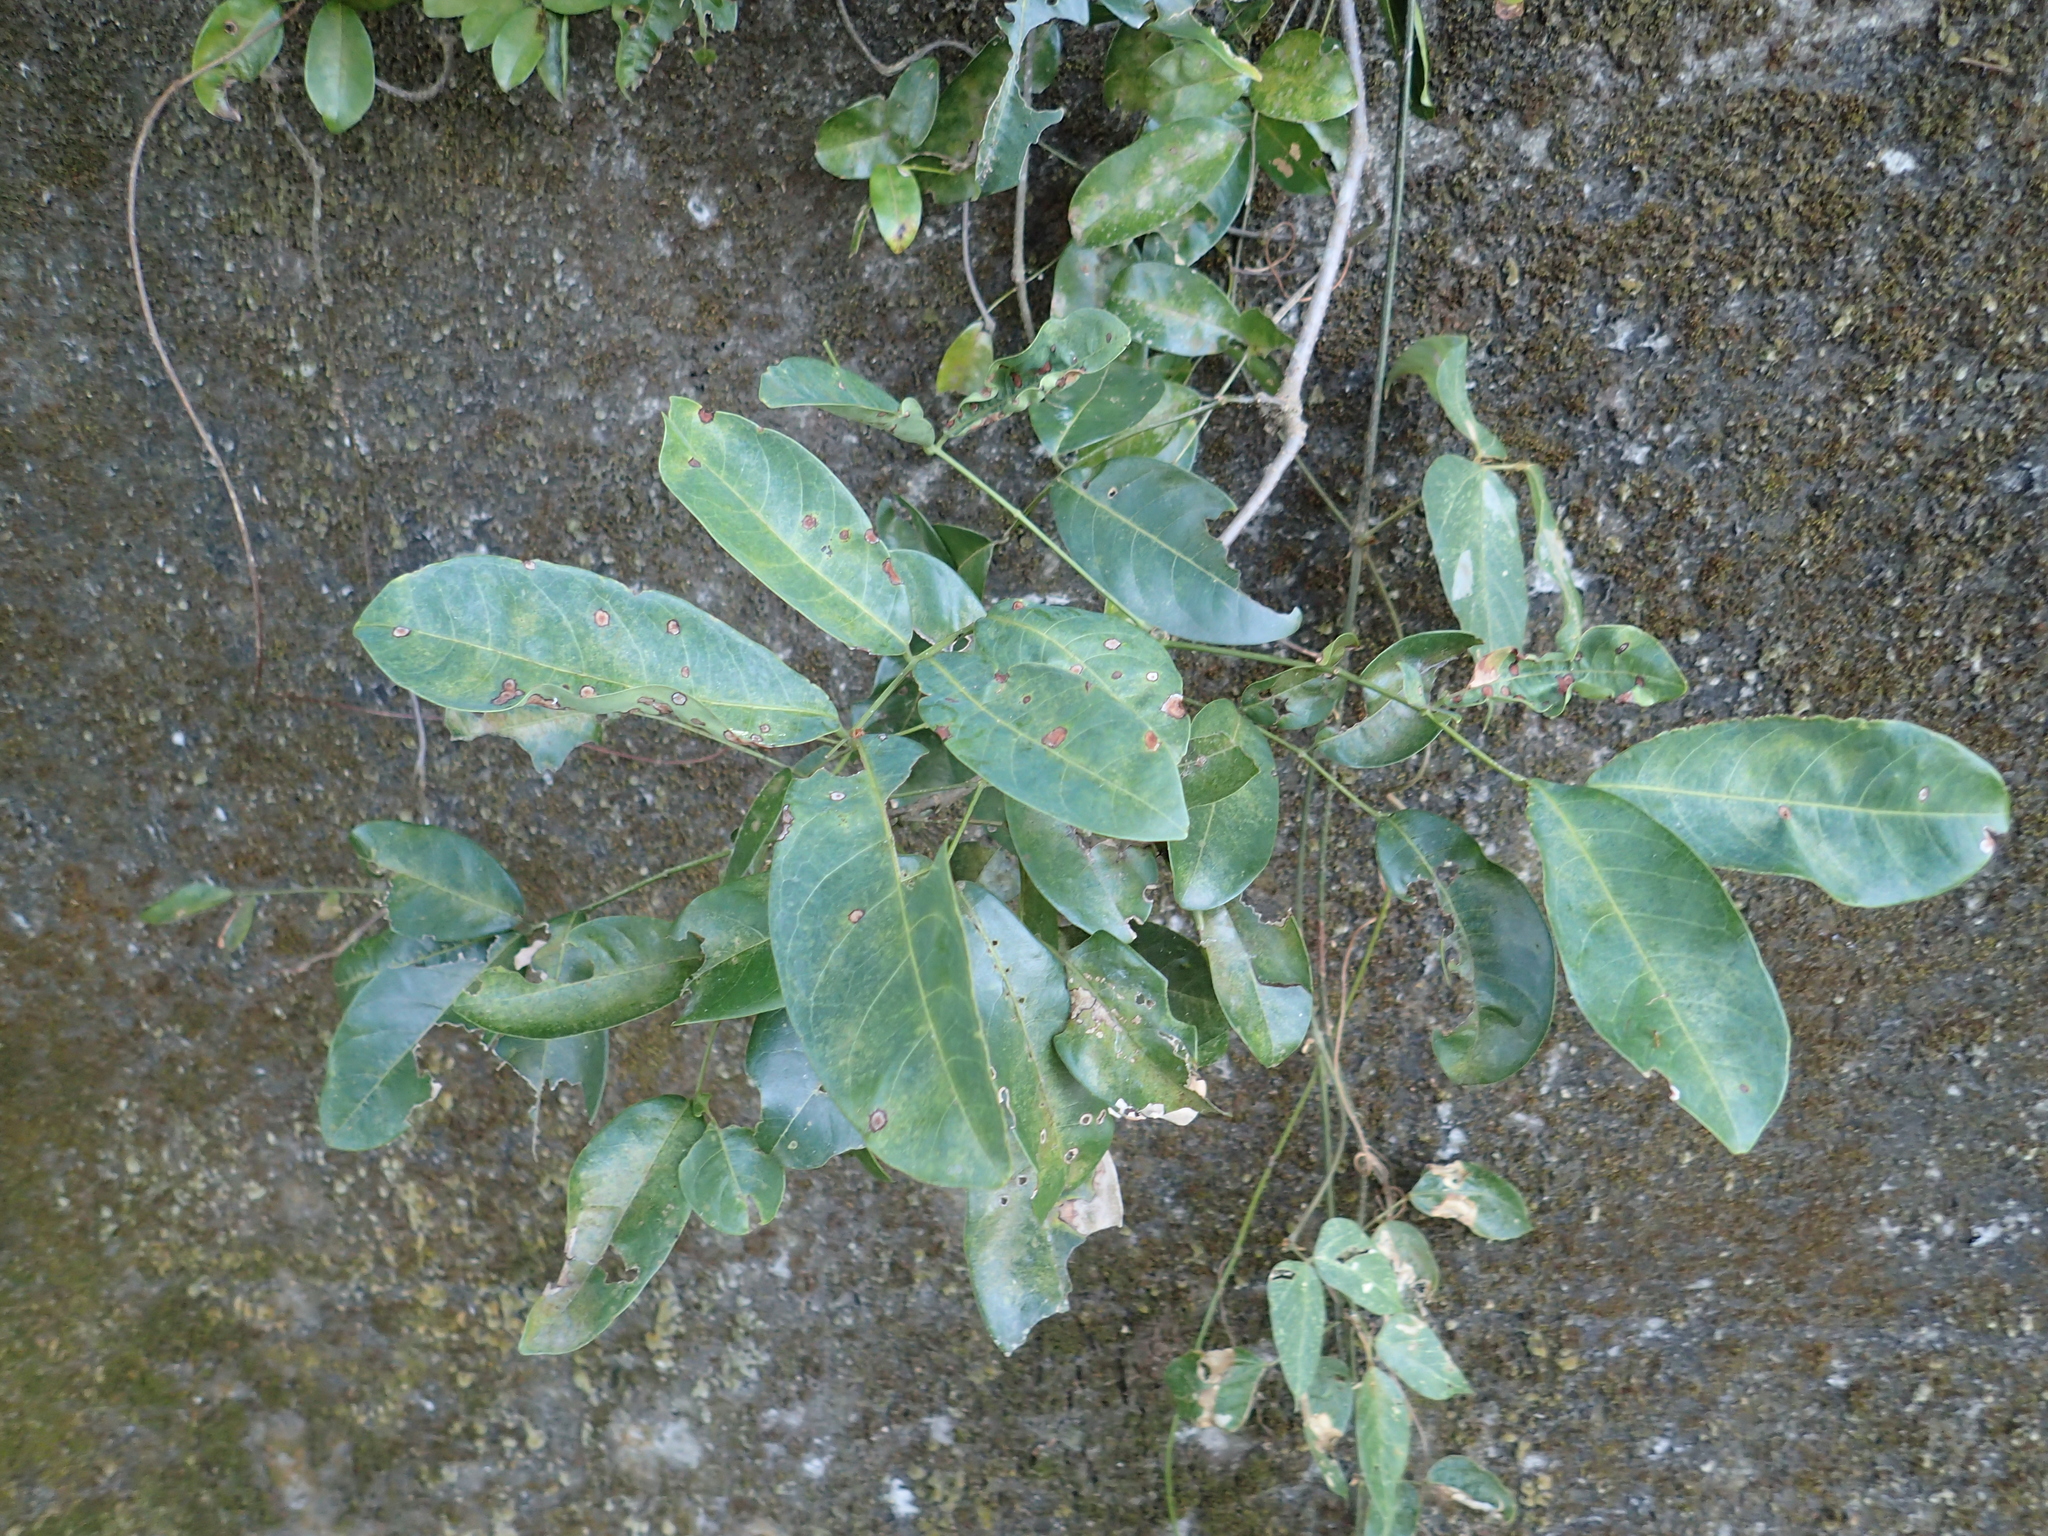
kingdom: Plantae
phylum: Tracheophyta
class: Magnoliopsida
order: Fabales
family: Fabaceae
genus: Wisteriopsis
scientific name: Wisteriopsis reticulata
